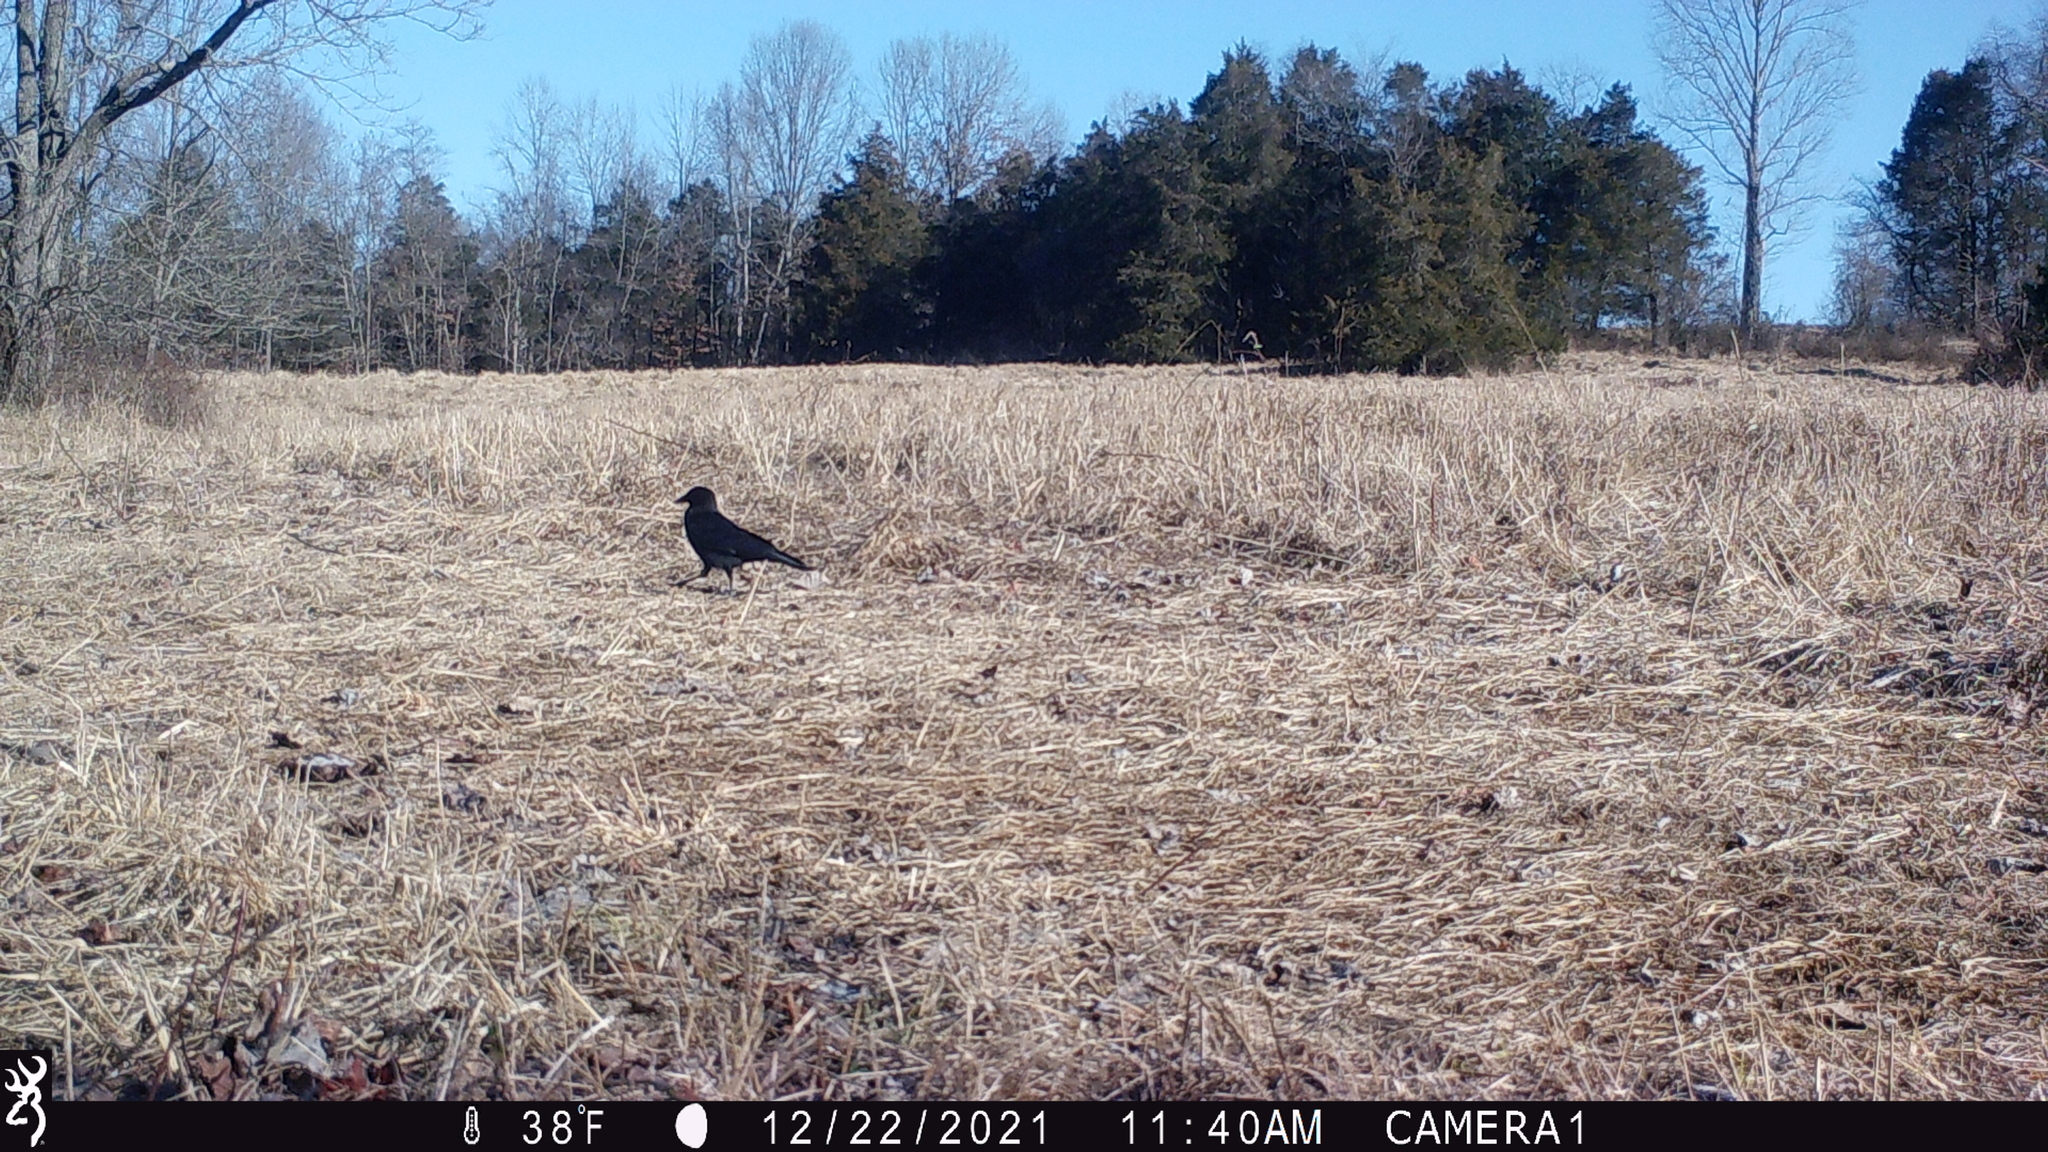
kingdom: Animalia
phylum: Chordata
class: Aves
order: Passeriformes
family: Corvidae
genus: Corvus
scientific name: Corvus brachyrhynchos
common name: American crow
